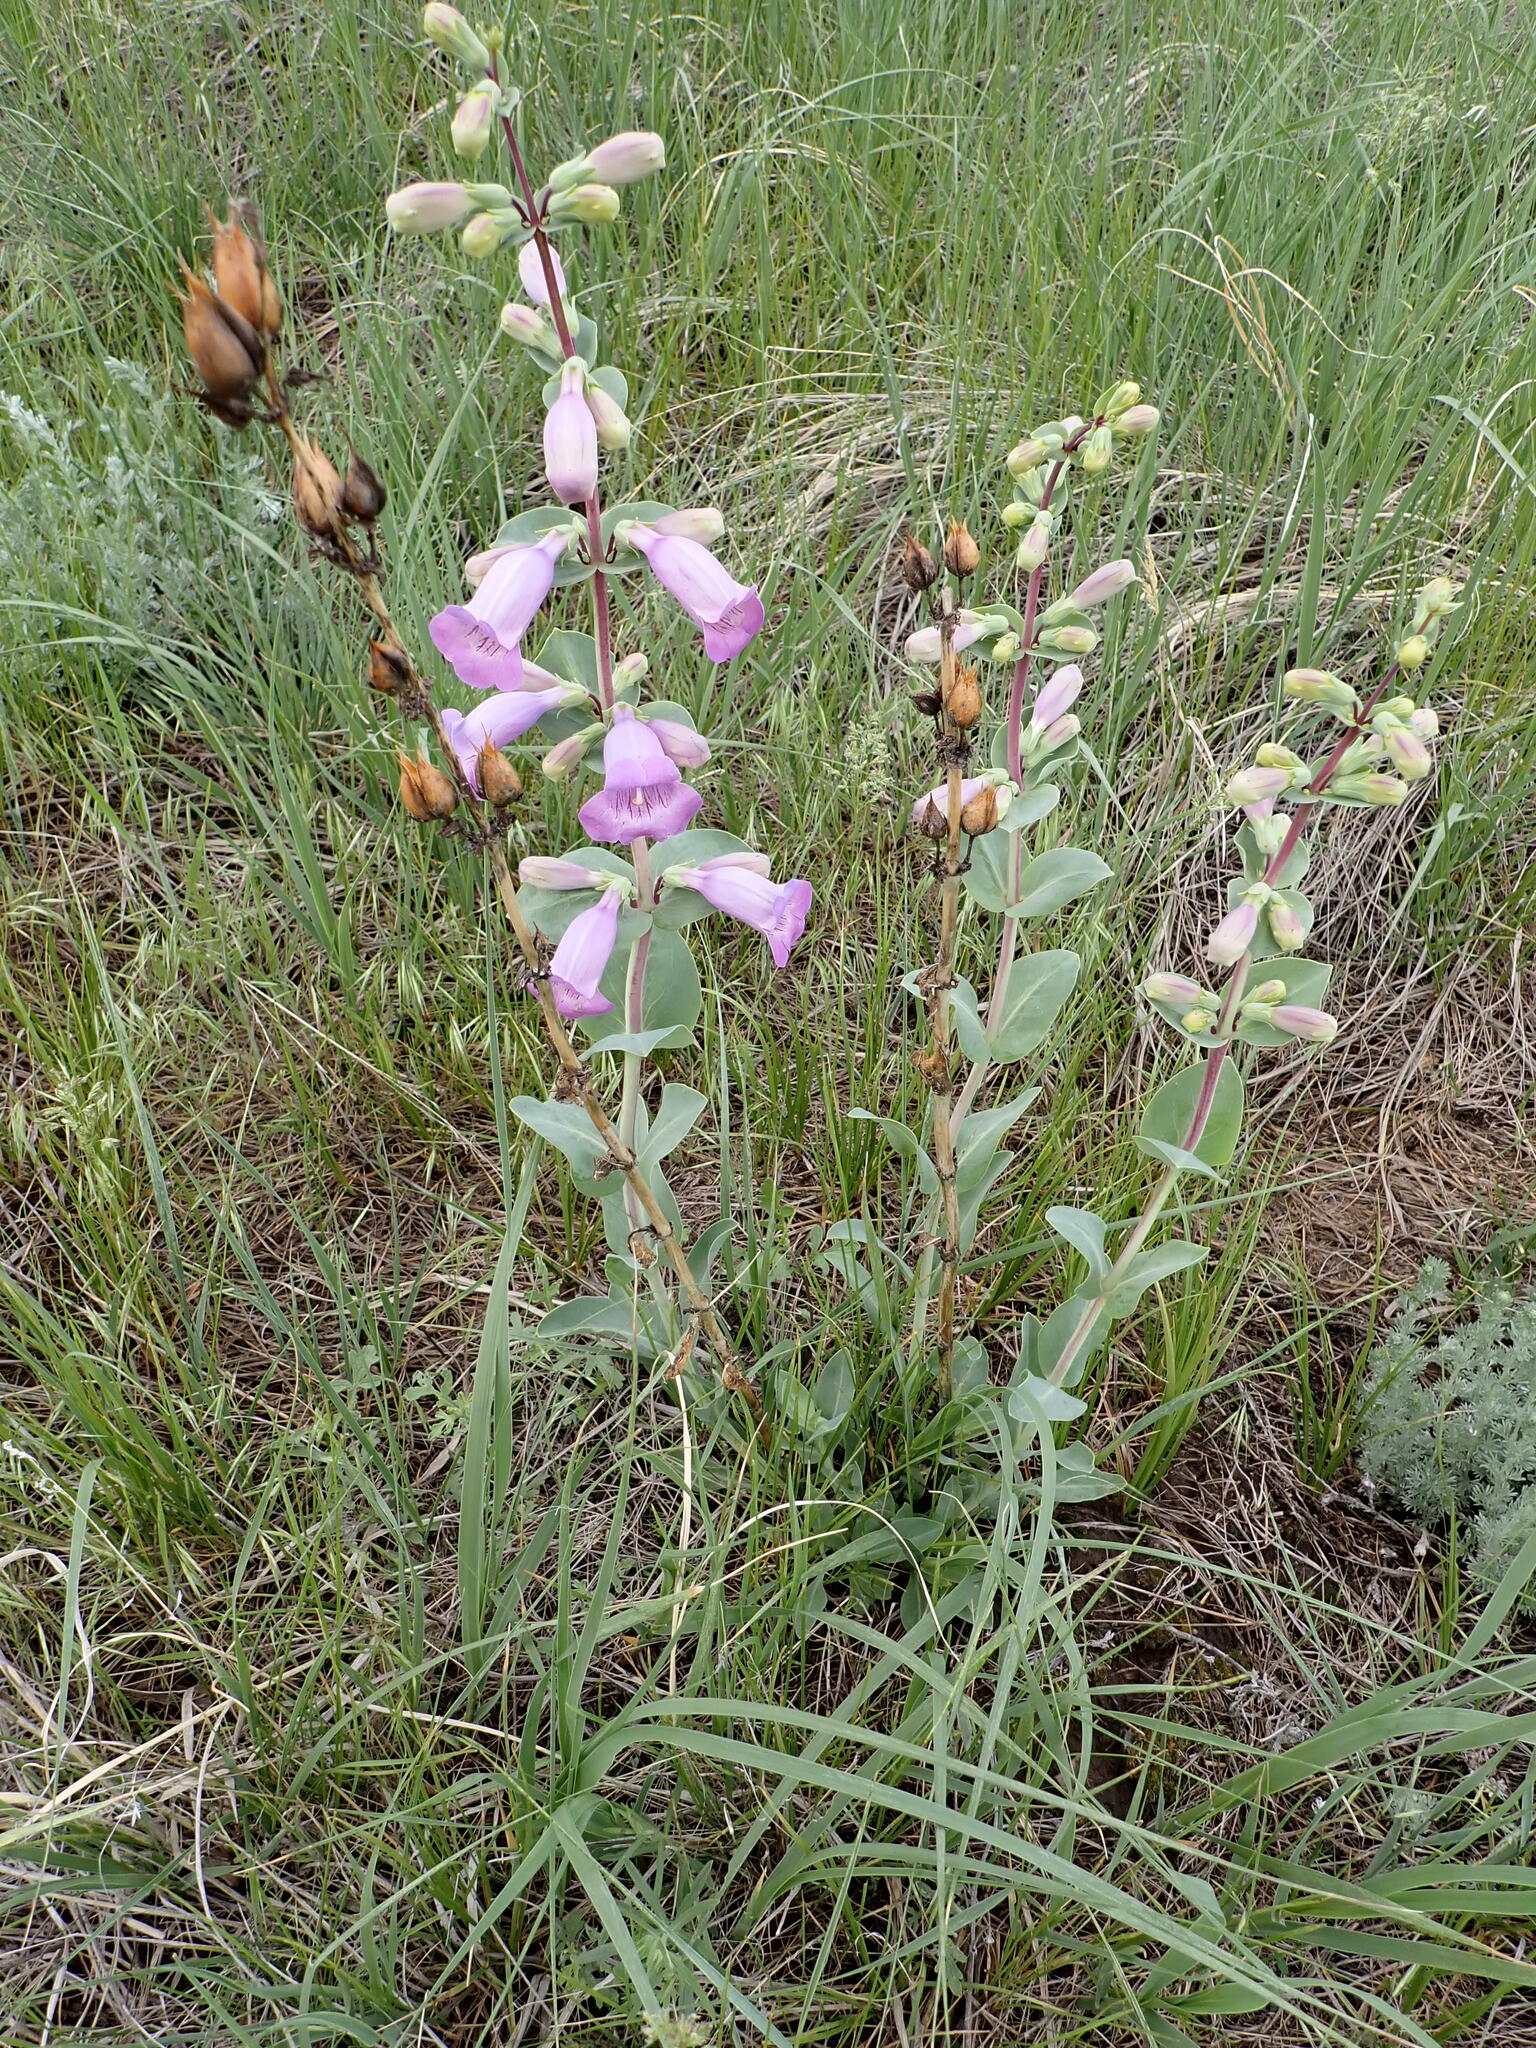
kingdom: Plantae
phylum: Tracheophyta
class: Magnoliopsida
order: Lamiales
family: Plantaginaceae
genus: Penstemon
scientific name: Penstemon
